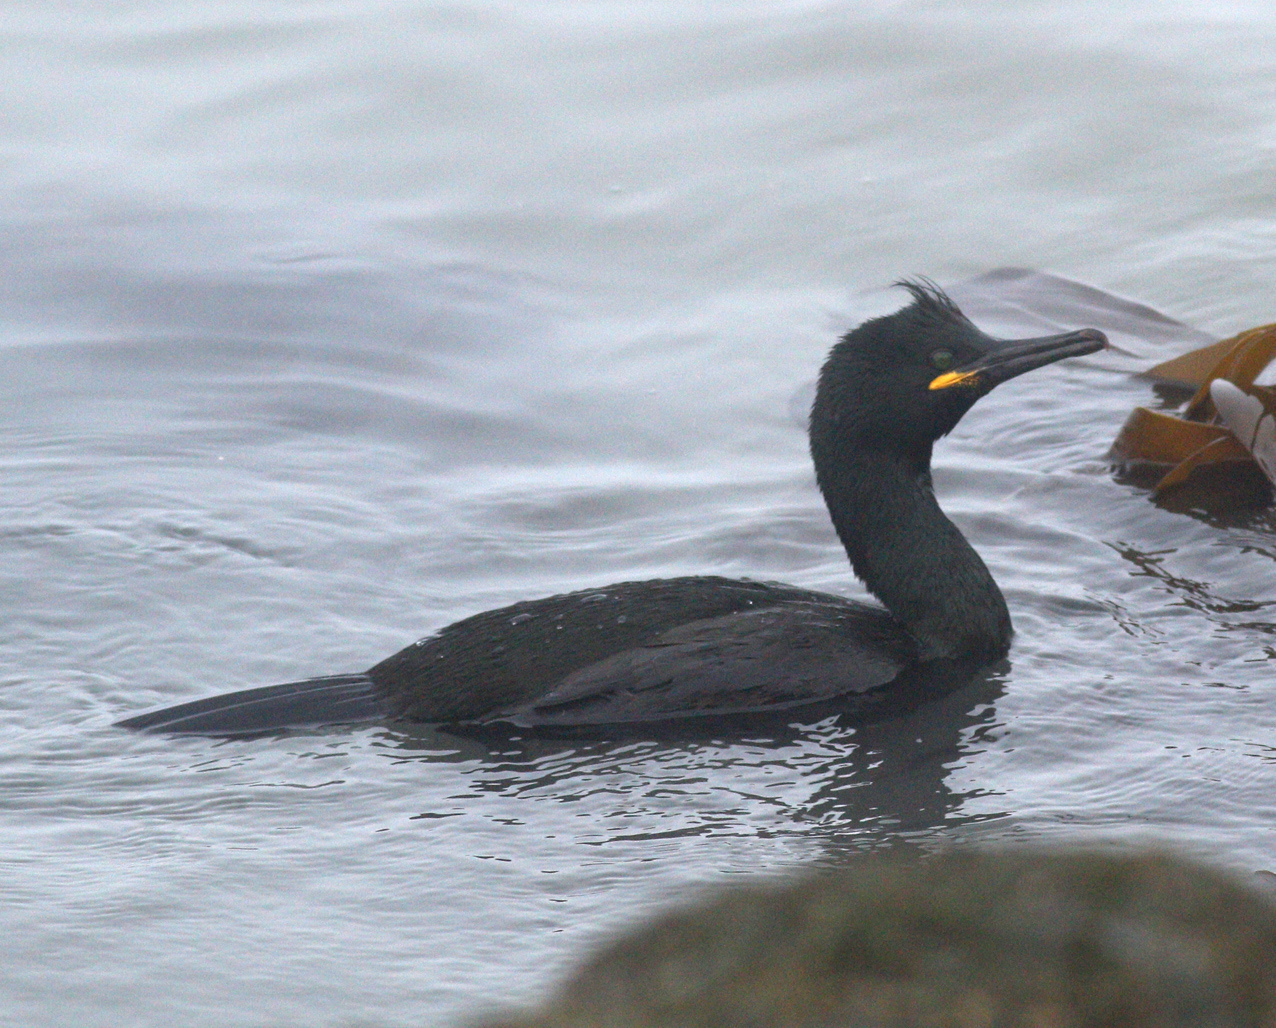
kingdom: Animalia
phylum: Chordata
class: Aves
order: Suliformes
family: Phalacrocoracidae
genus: Phalacrocorax
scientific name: Phalacrocorax aristotelis
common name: European shag
